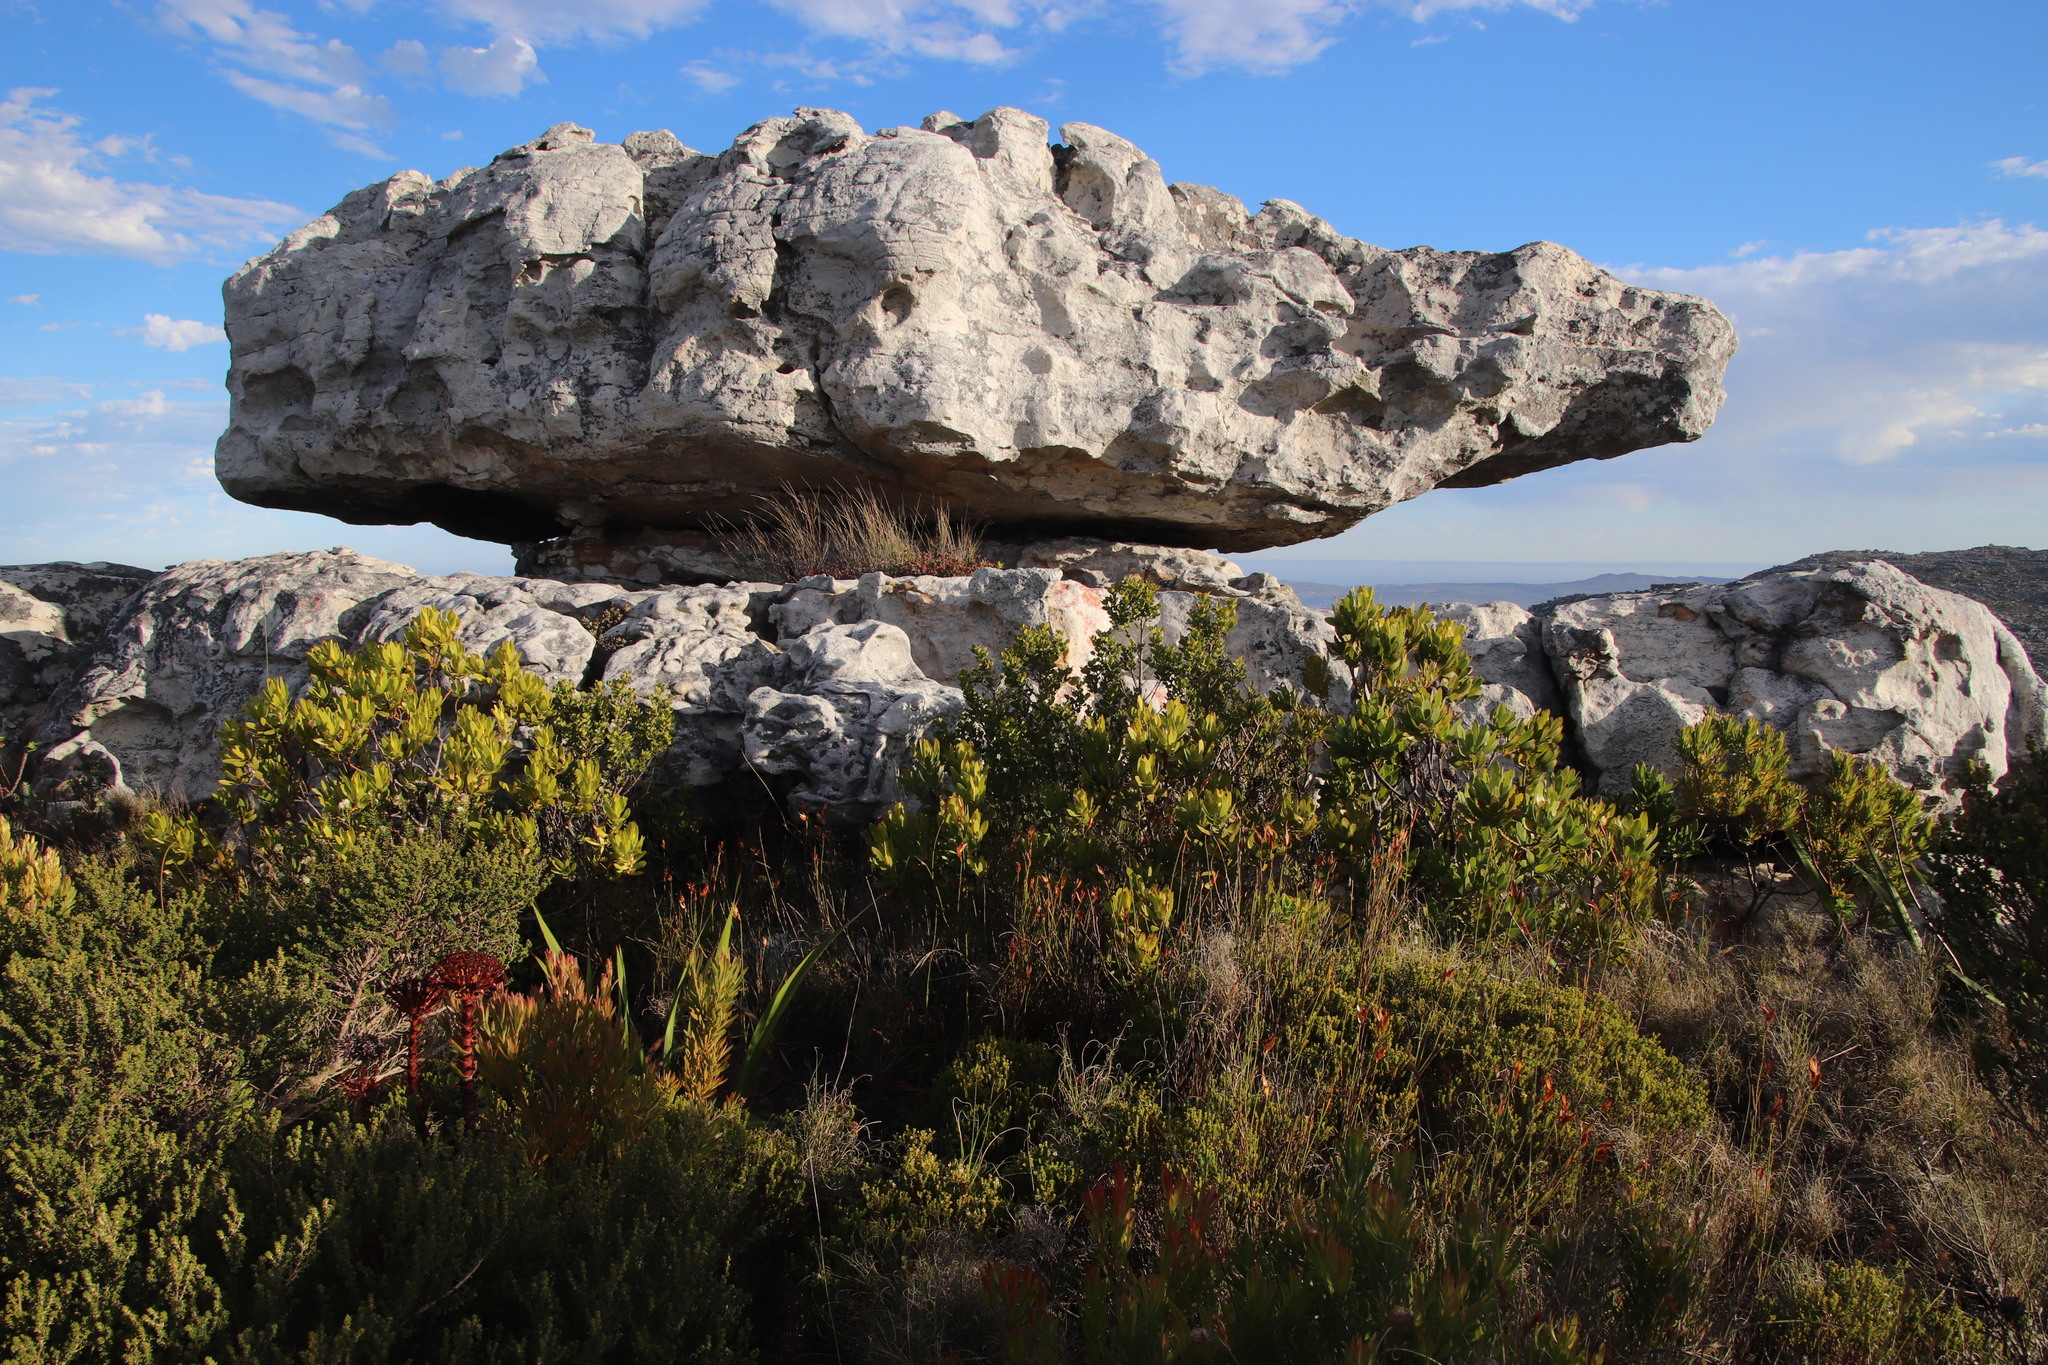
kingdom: Plantae
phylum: Tracheophyta
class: Magnoliopsida
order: Proteales
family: Proteaceae
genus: Leucadendron
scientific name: Leucadendron laureolum
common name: Golden sunshinebush
